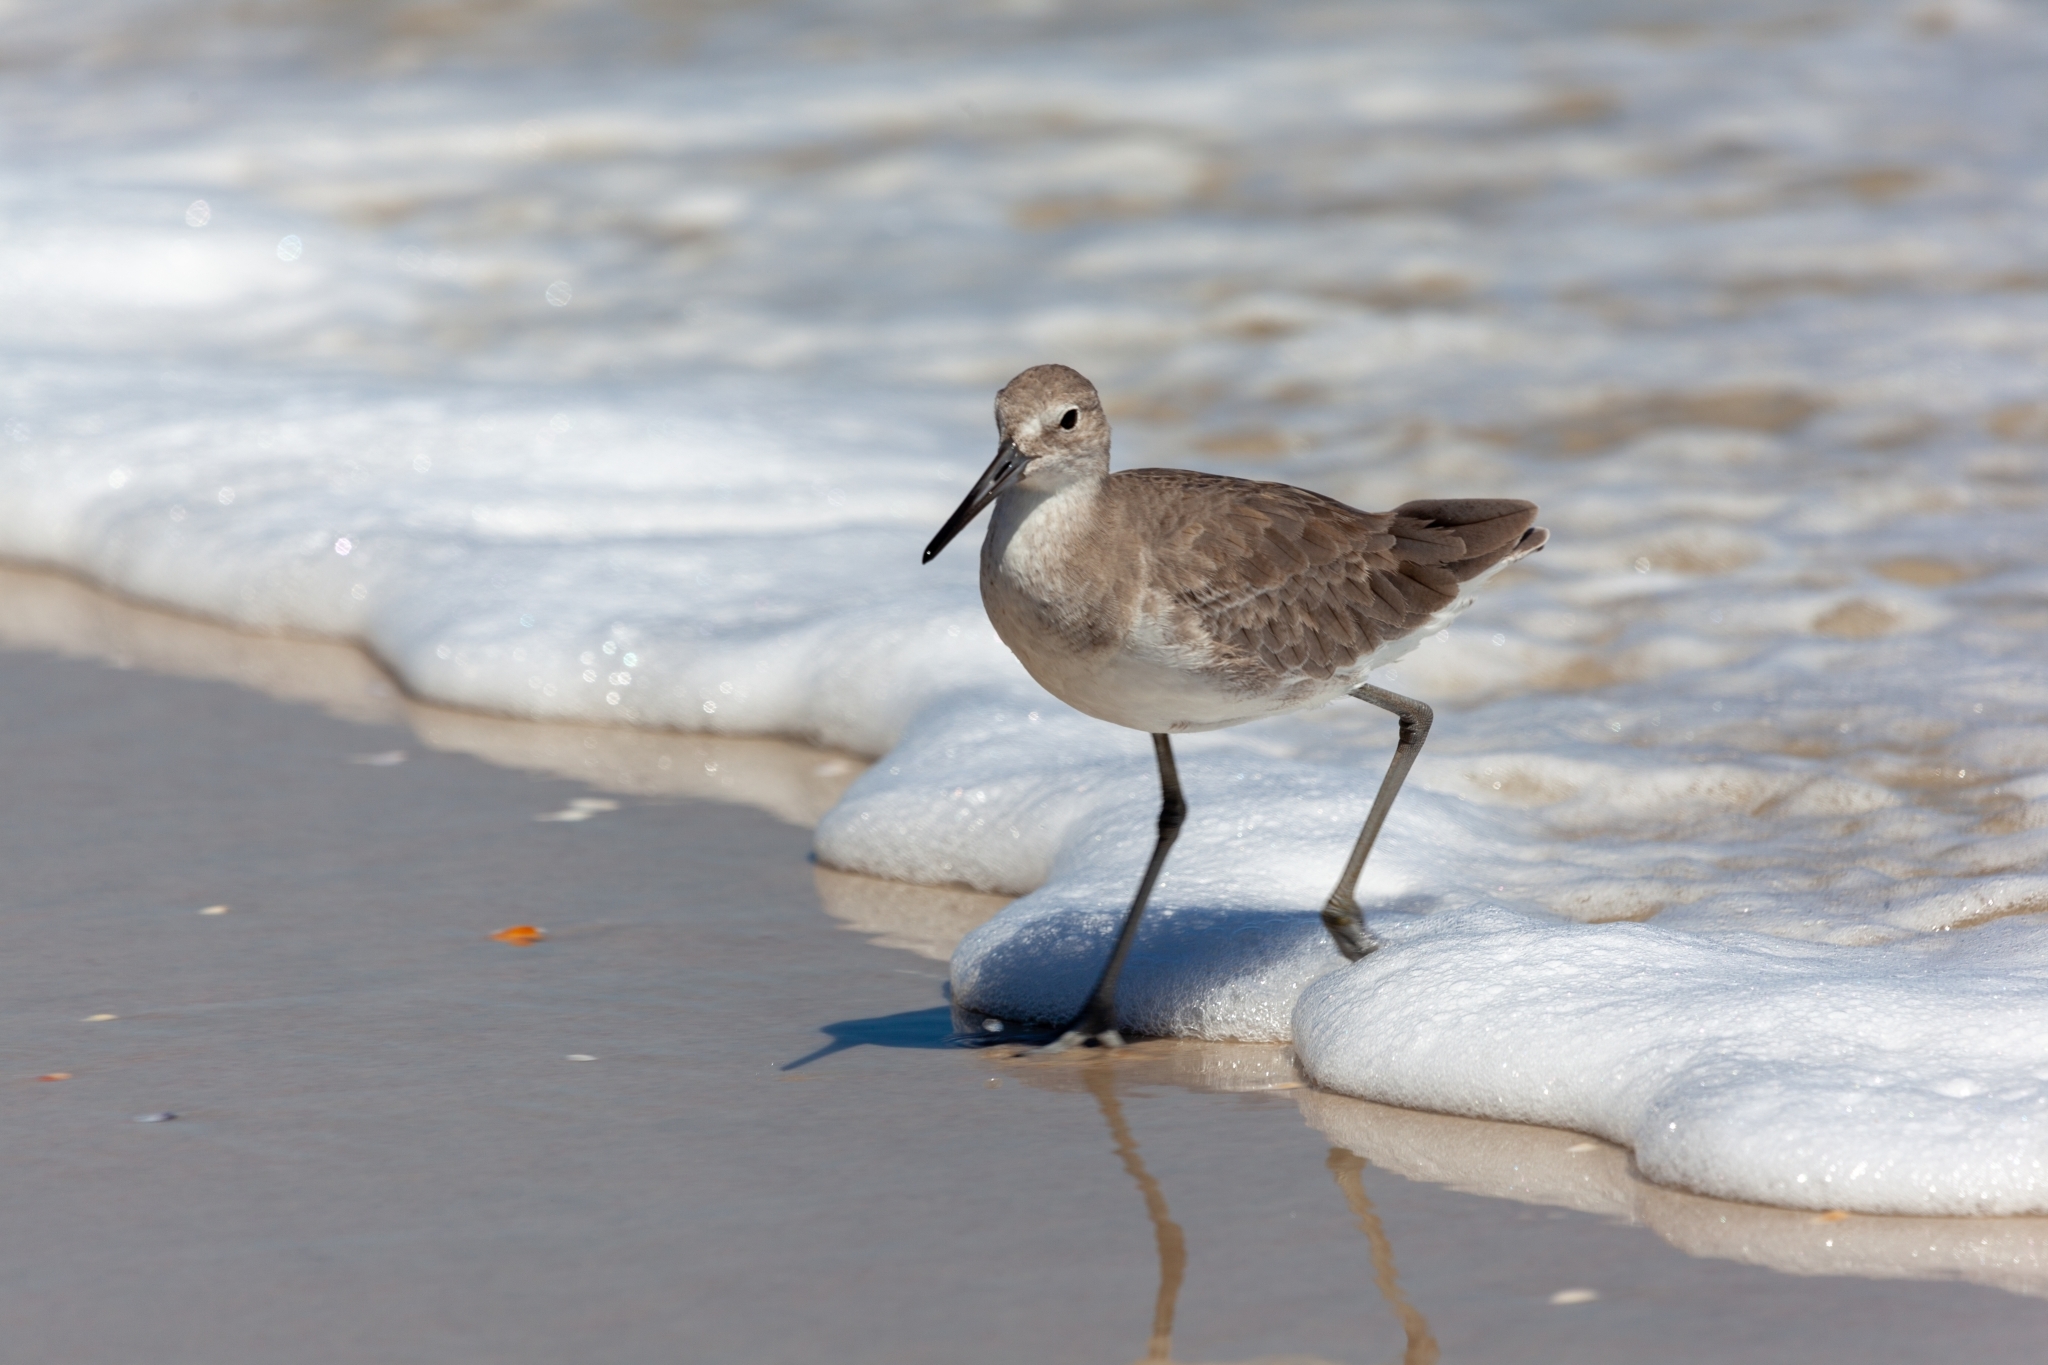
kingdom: Animalia
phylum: Chordata
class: Aves
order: Charadriiformes
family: Scolopacidae
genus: Tringa
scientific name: Tringa semipalmata
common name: Willet
